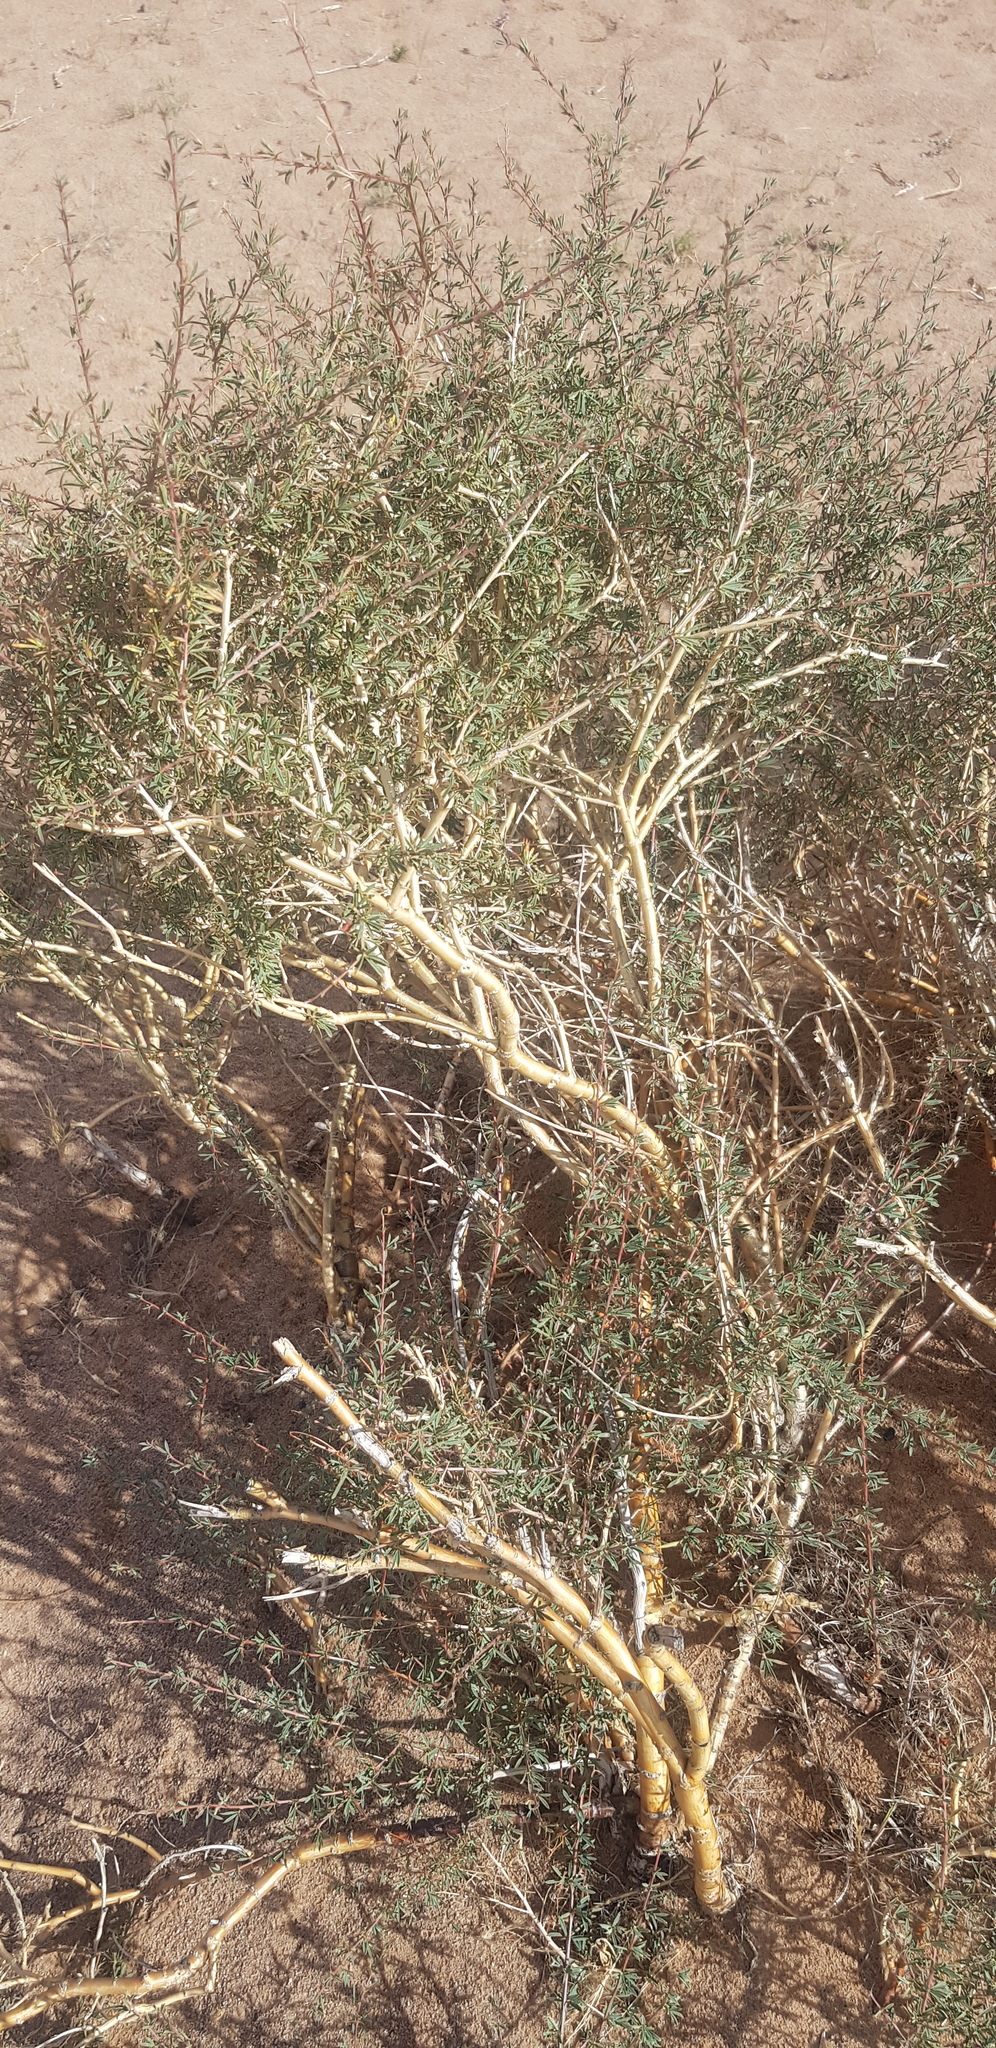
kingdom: Plantae
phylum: Tracheophyta
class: Magnoliopsida
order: Fabales
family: Fabaceae
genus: Caragana
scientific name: Caragana leucophloea
